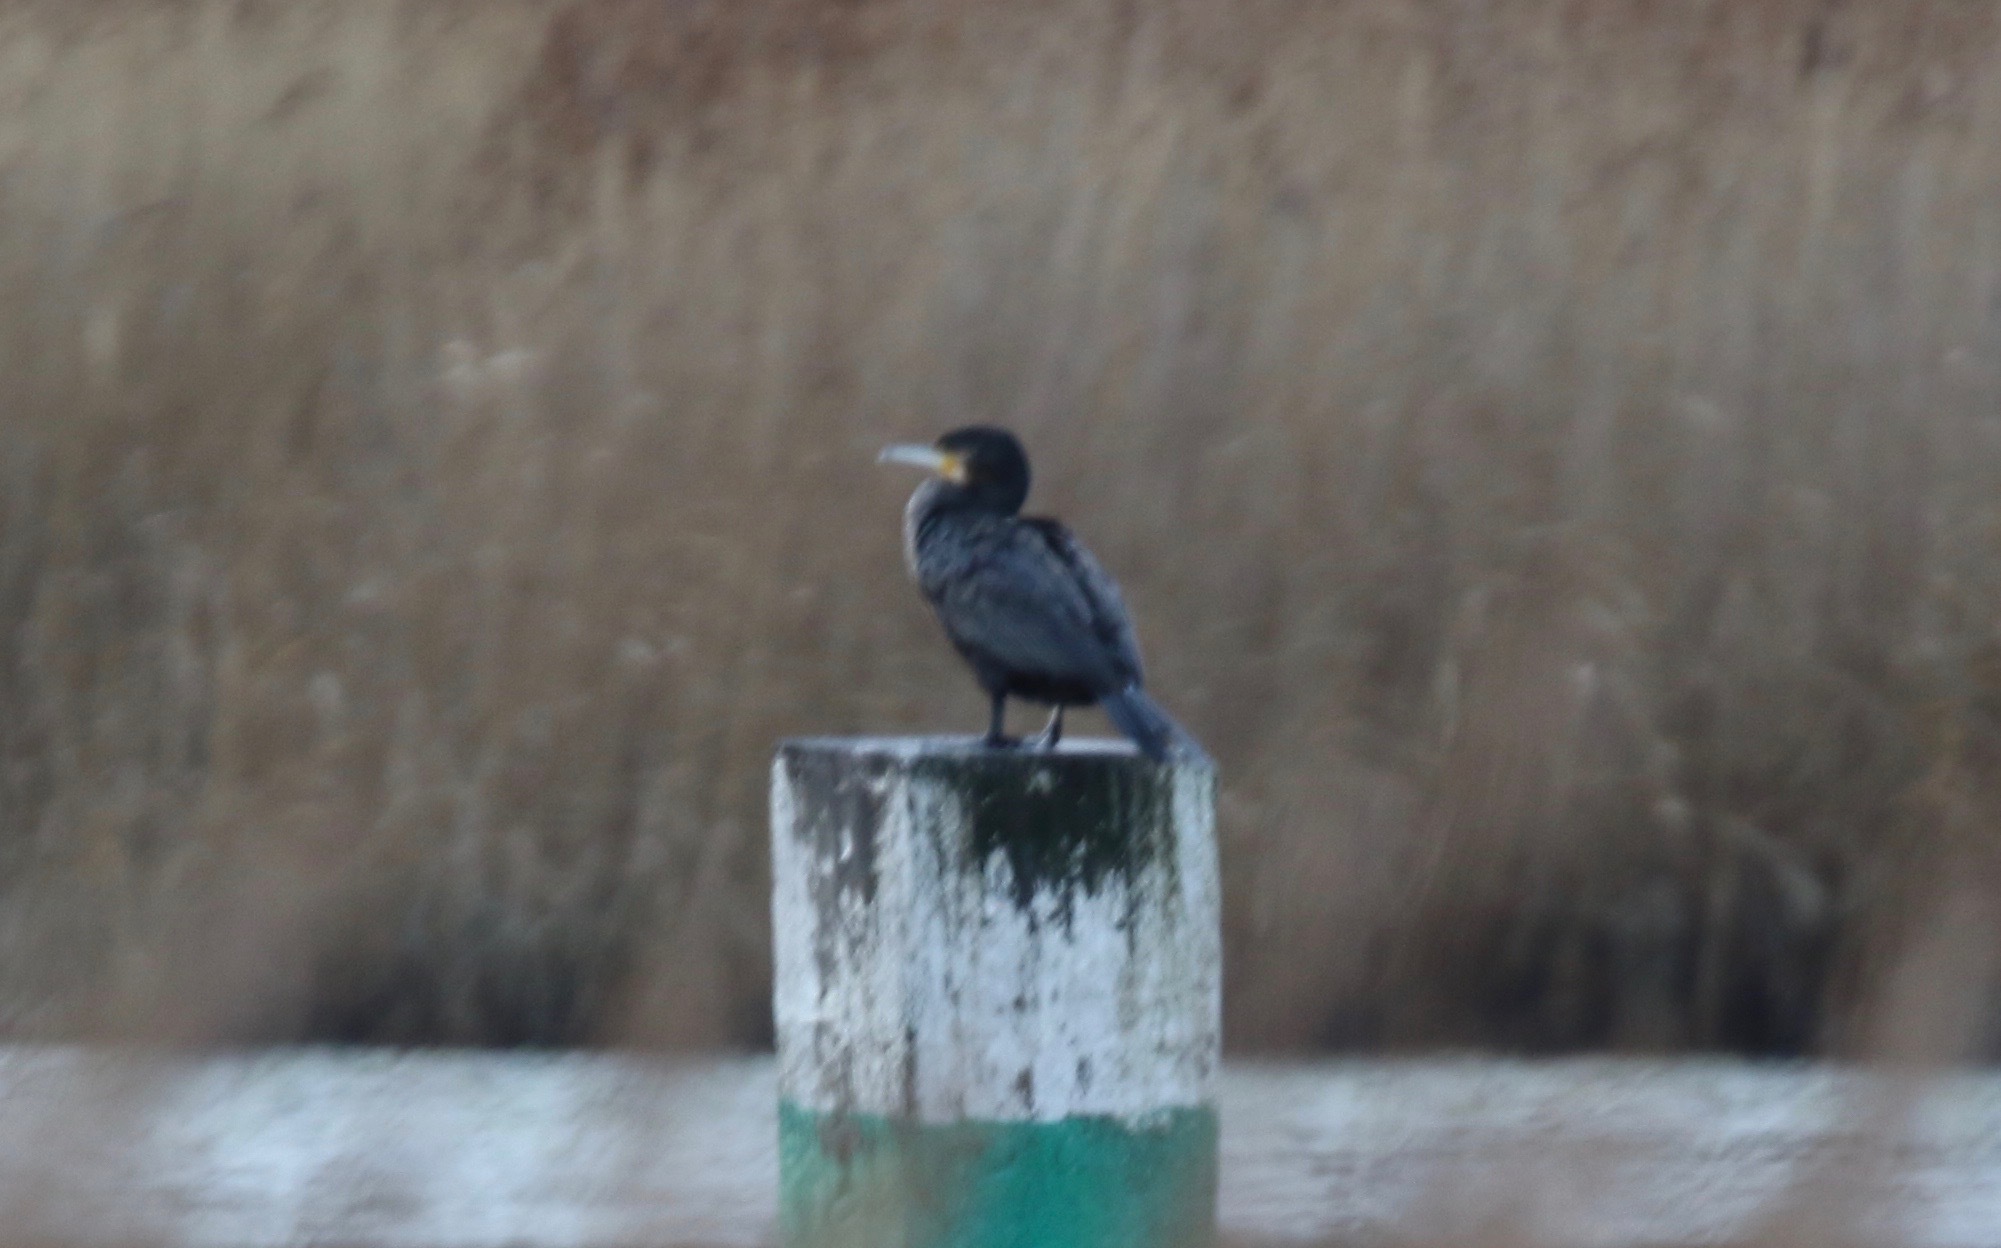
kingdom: Animalia
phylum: Chordata
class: Aves
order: Suliformes
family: Phalacrocoracidae
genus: Phalacrocorax
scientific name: Phalacrocorax carbo
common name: Great cormorant
